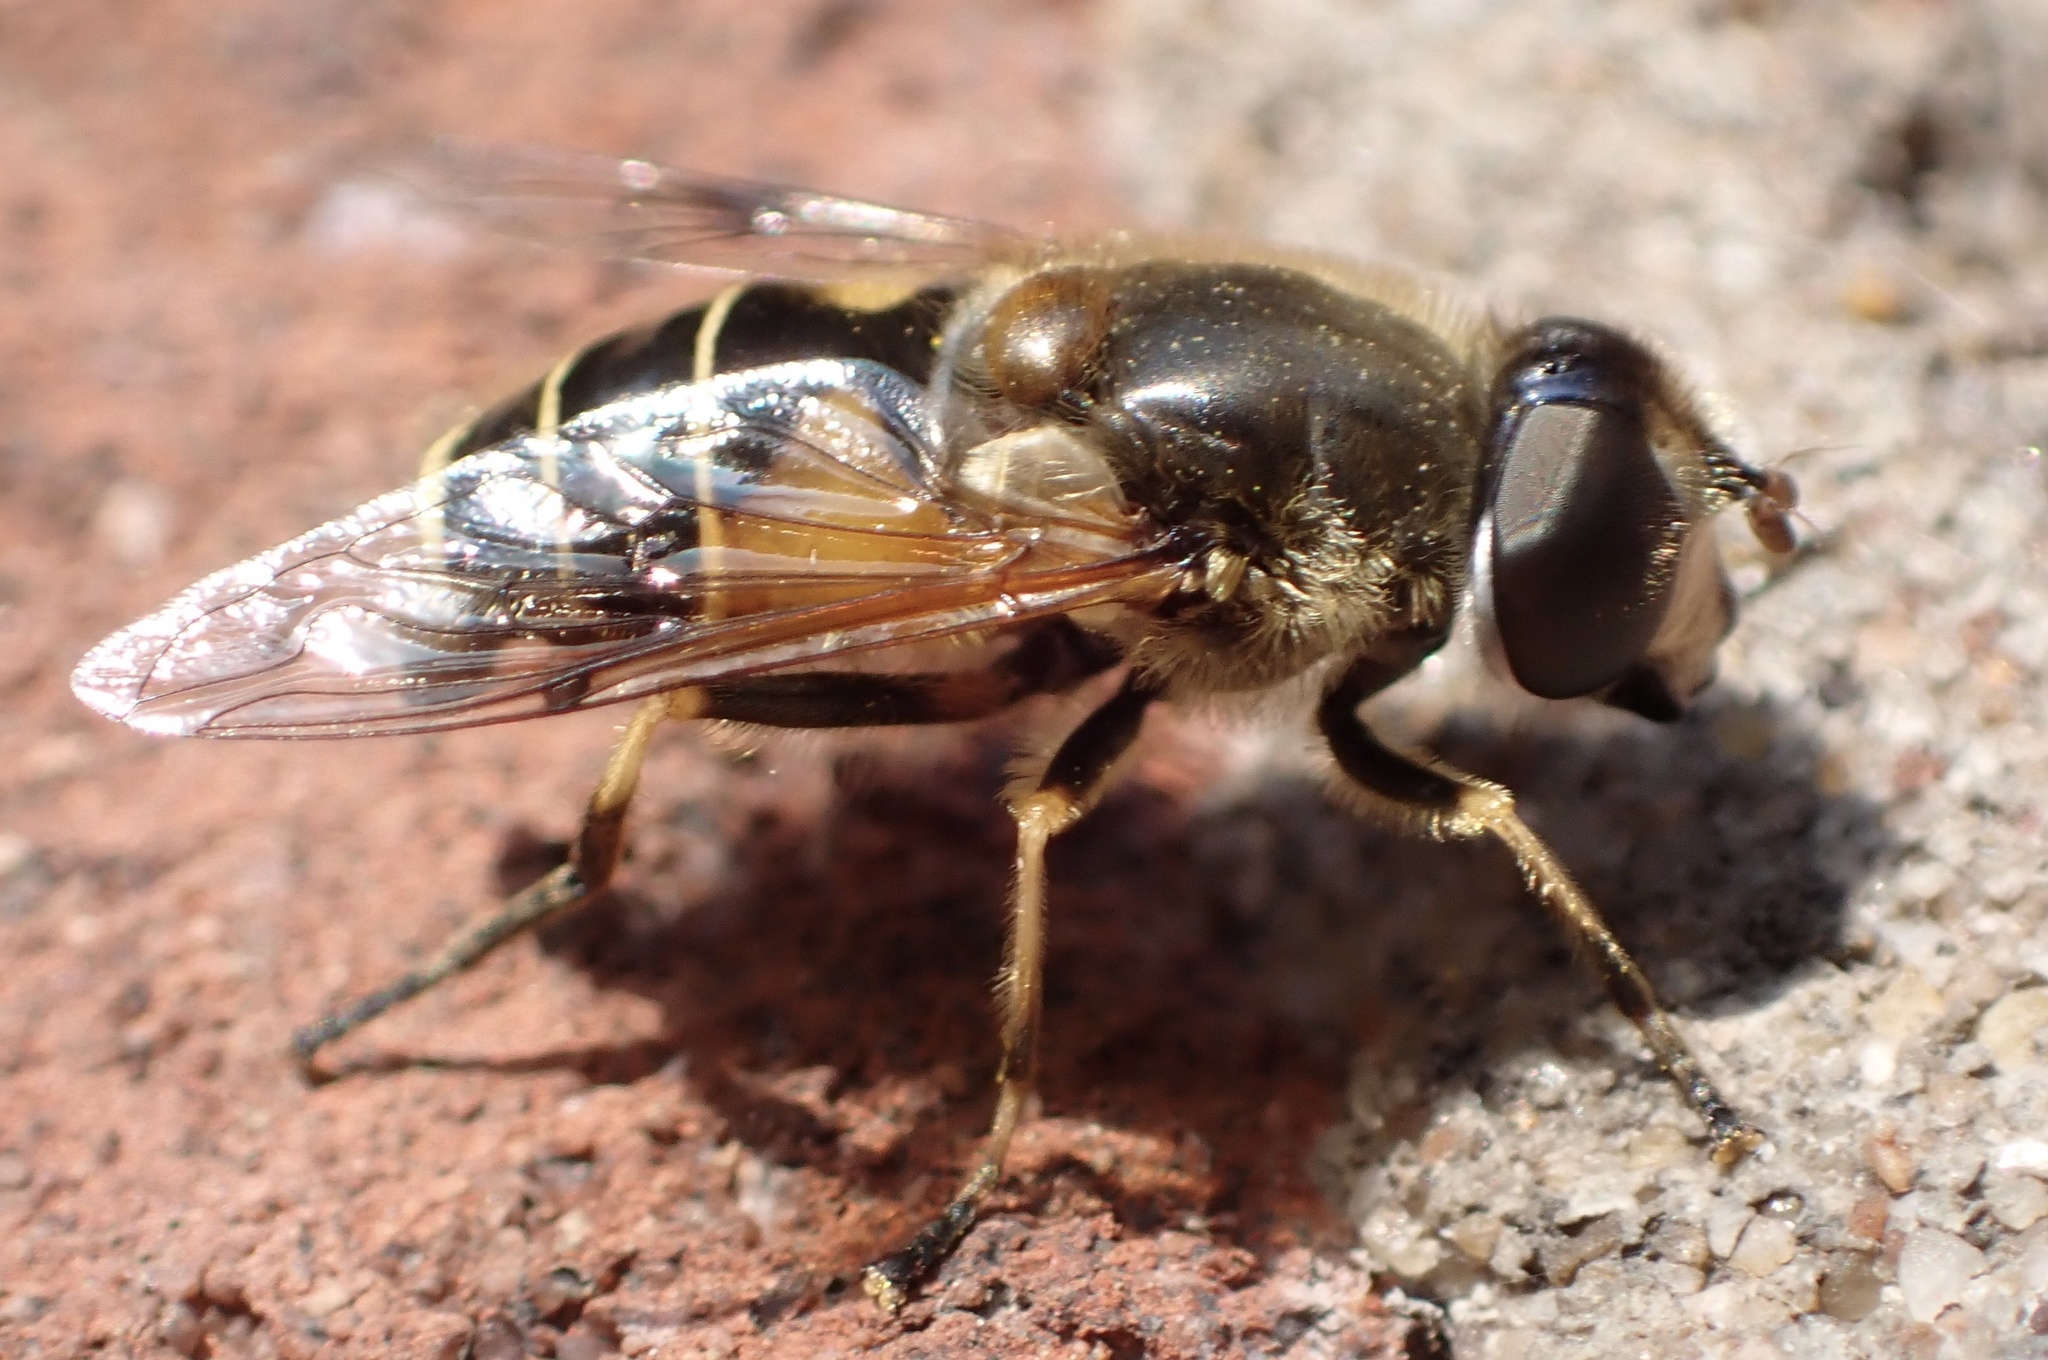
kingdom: Animalia
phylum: Arthropoda
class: Insecta
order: Diptera
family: Syrphidae
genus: Cheilosia
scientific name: Cheilosia morio
